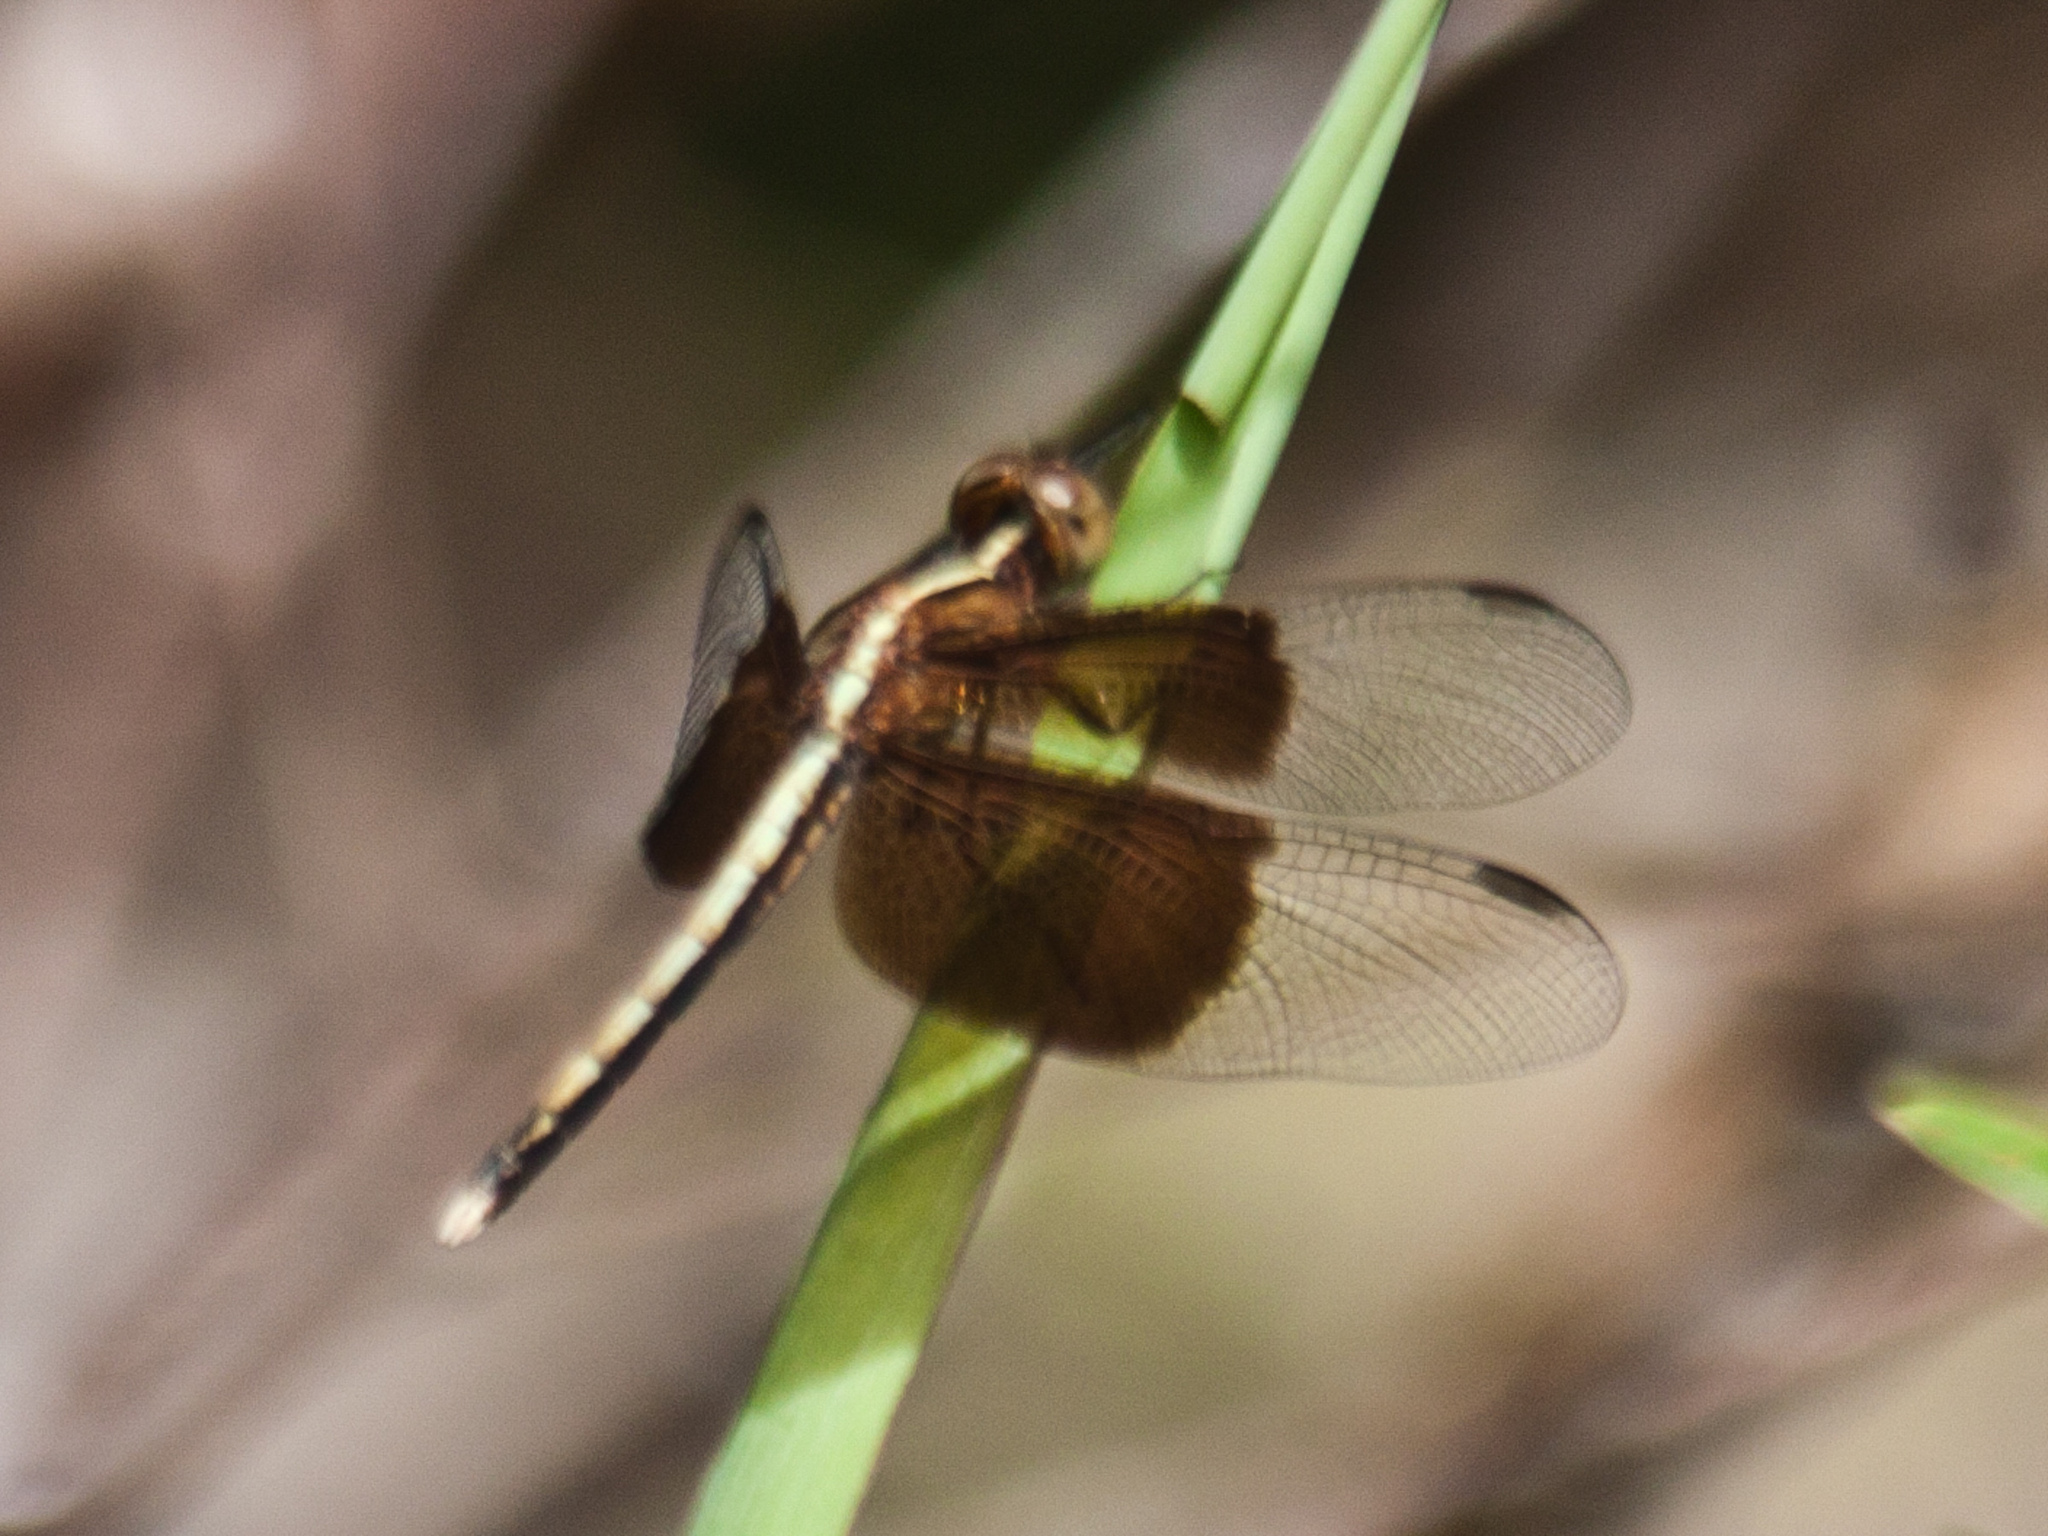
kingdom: Animalia
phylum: Arthropoda
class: Insecta
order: Odonata
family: Libellulidae
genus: Neurothemis
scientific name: Neurothemis tullia
